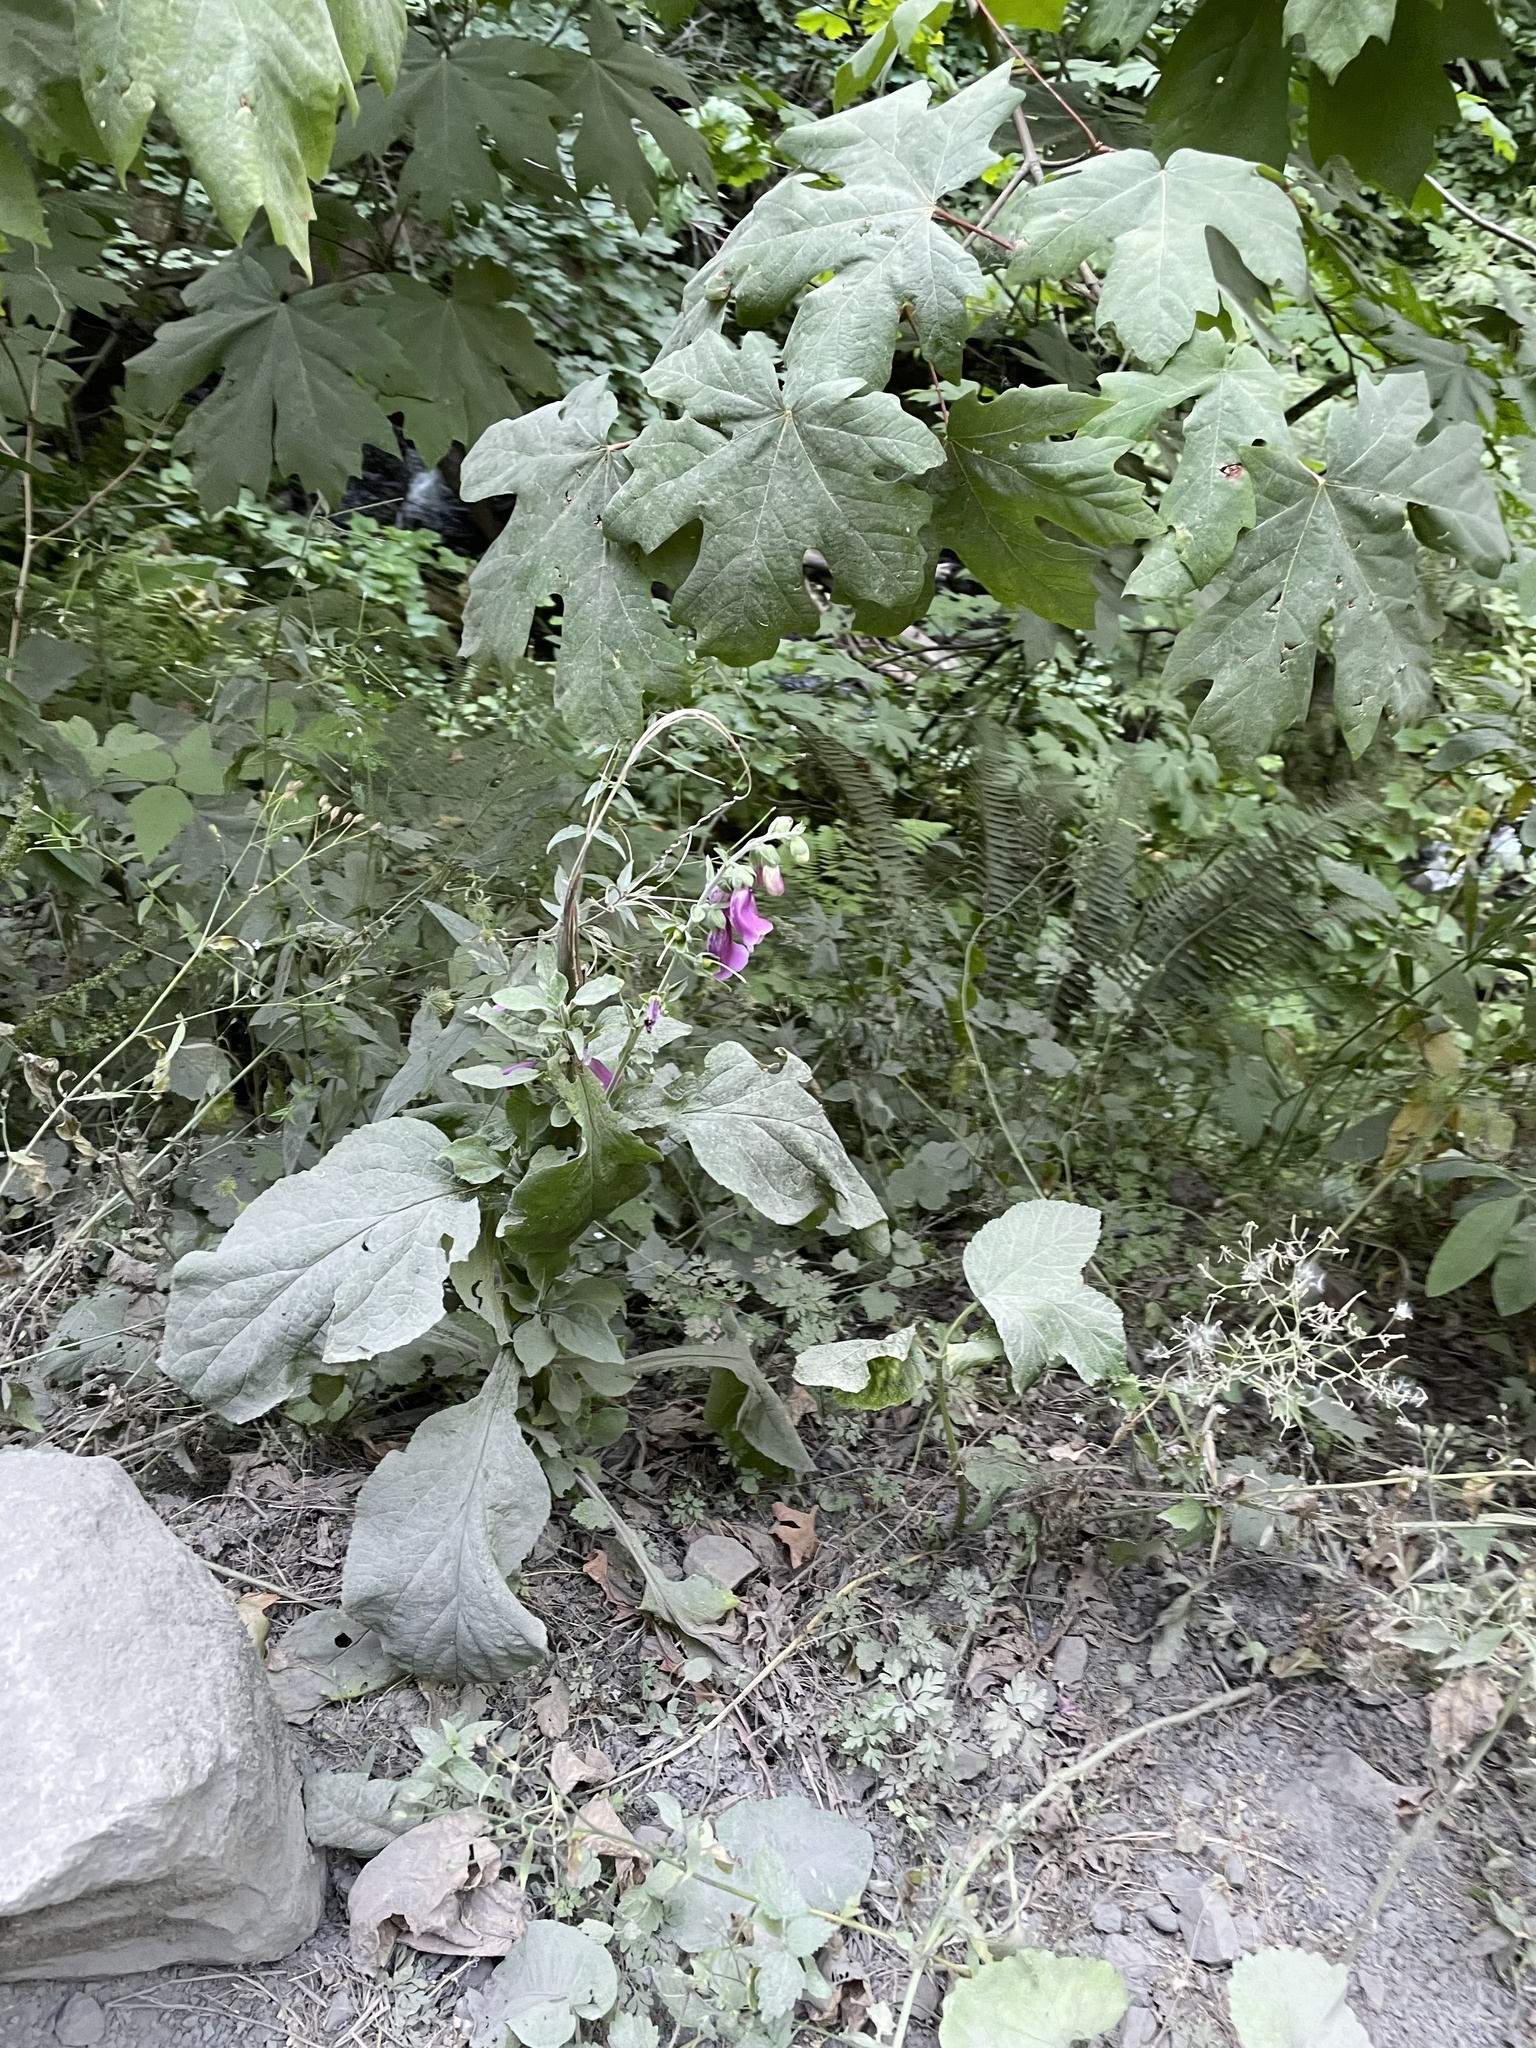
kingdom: Plantae
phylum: Tracheophyta
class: Magnoliopsida
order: Lamiales
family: Plantaginaceae
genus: Digitalis
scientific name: Digitalis purpurea
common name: Foxglove
